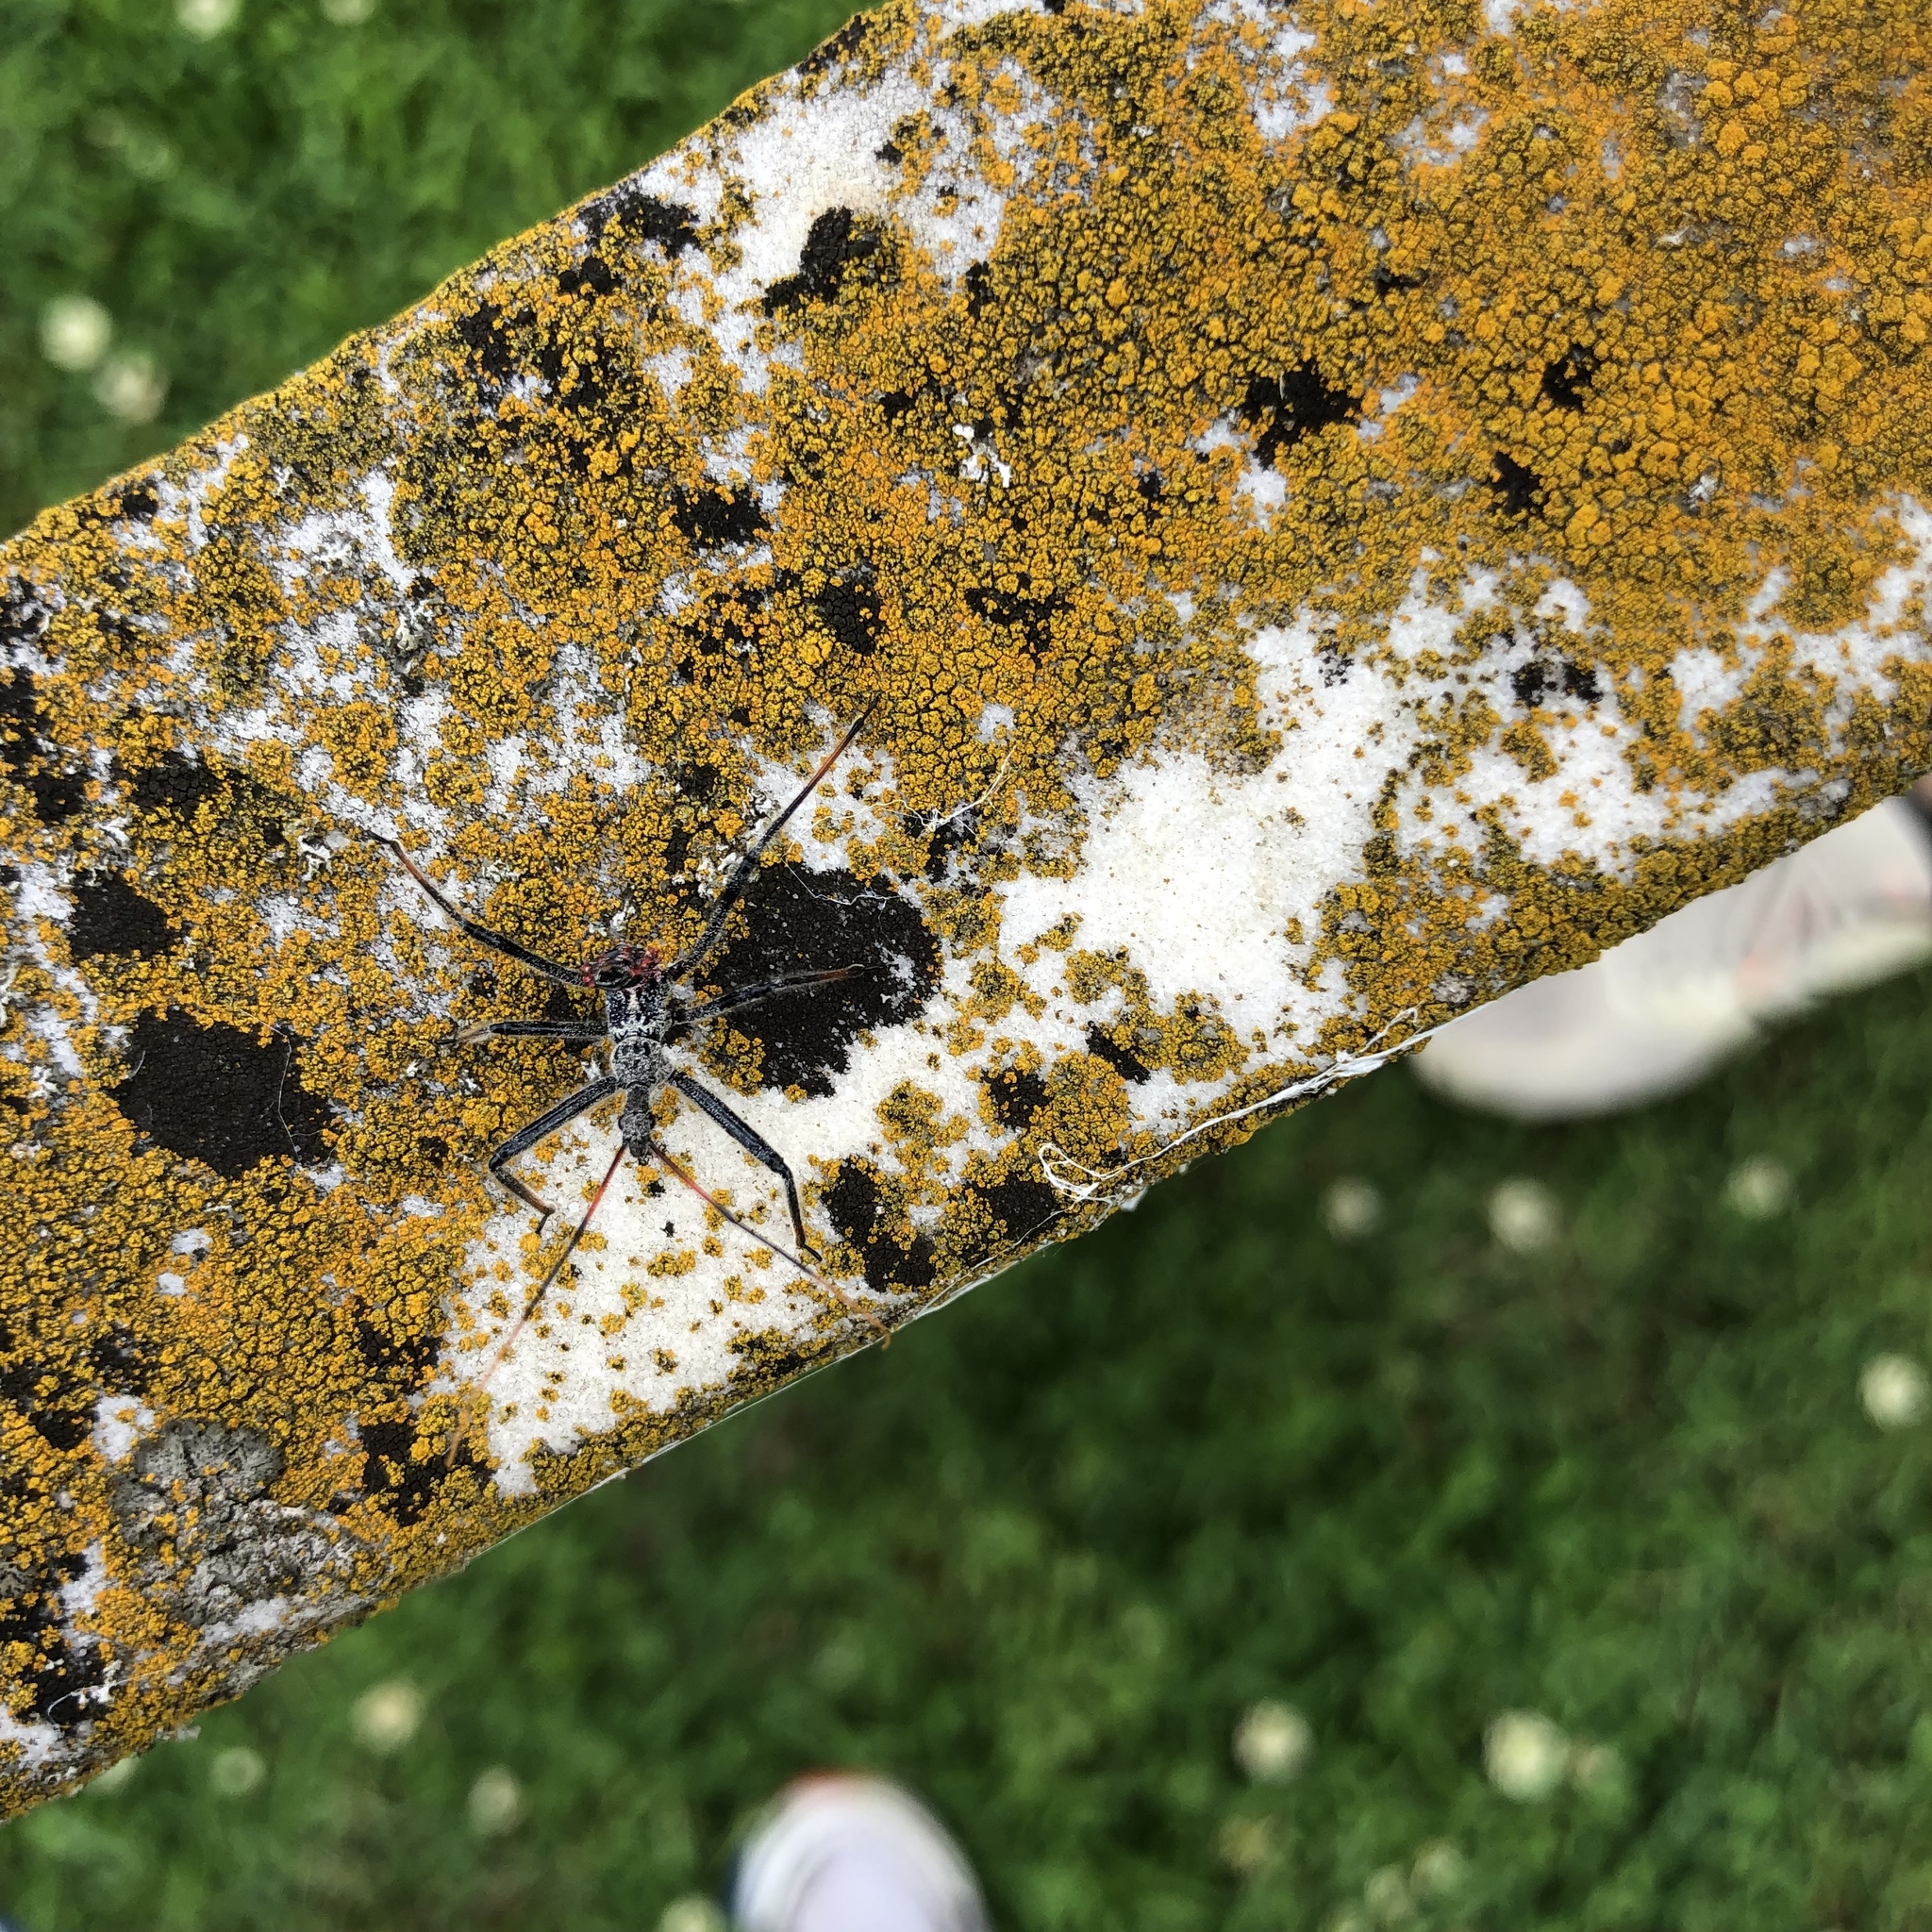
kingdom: Animalia
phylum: Arthropoda
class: Insecta
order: Hemiptera
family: Reduviidae
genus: Arilus
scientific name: Arilus cristatus
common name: North american wheel bug
